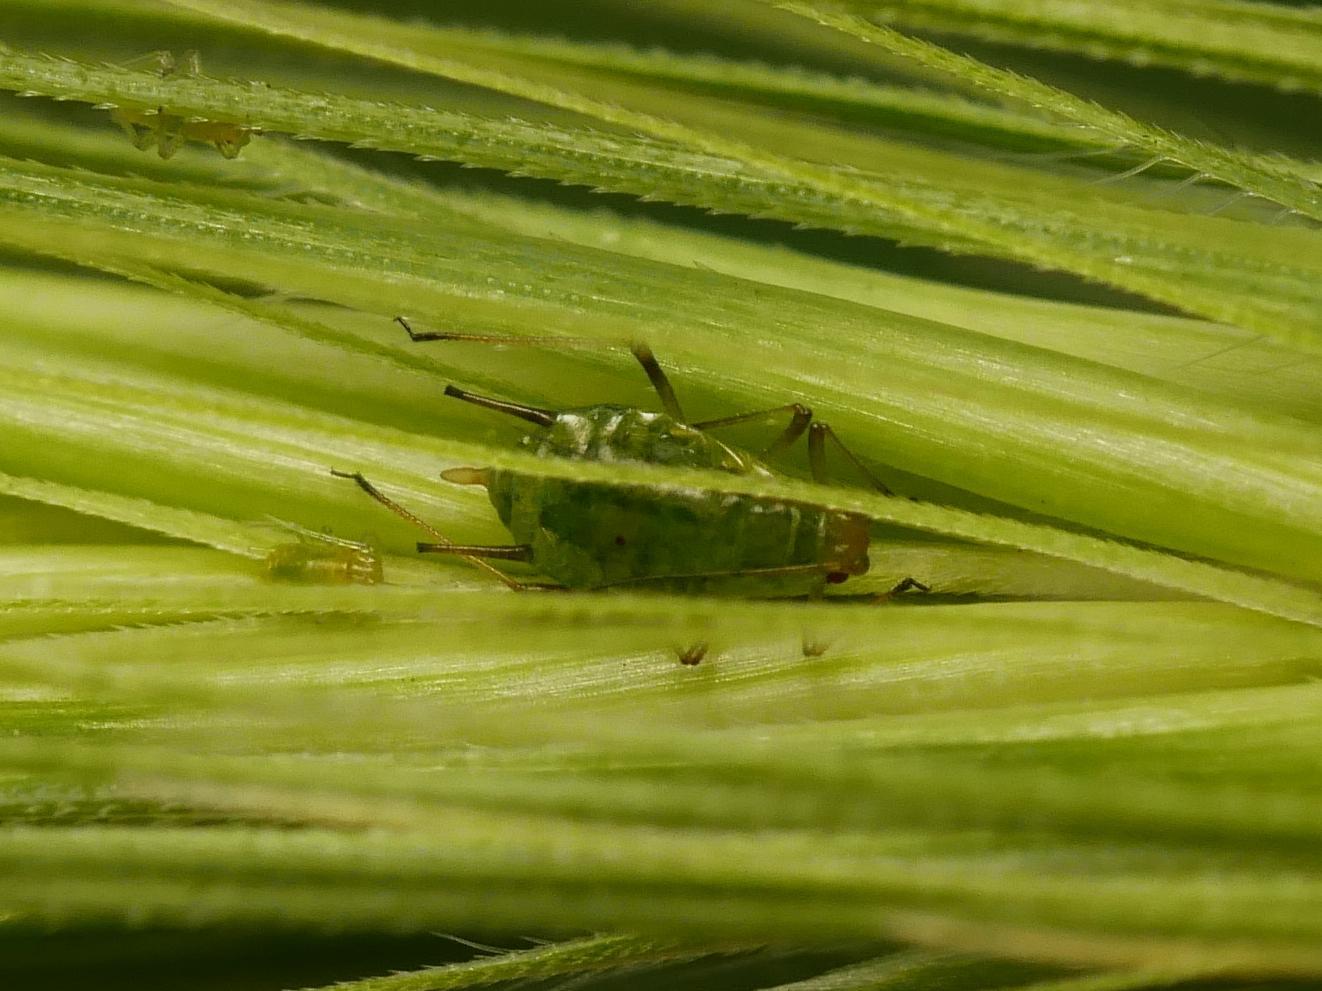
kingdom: Animalia
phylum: Arthropoda
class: Insecta
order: Hemiptera
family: Aphididae
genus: Sitobion
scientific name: Sitobion fragariae
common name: Blackberry cereal aphid
